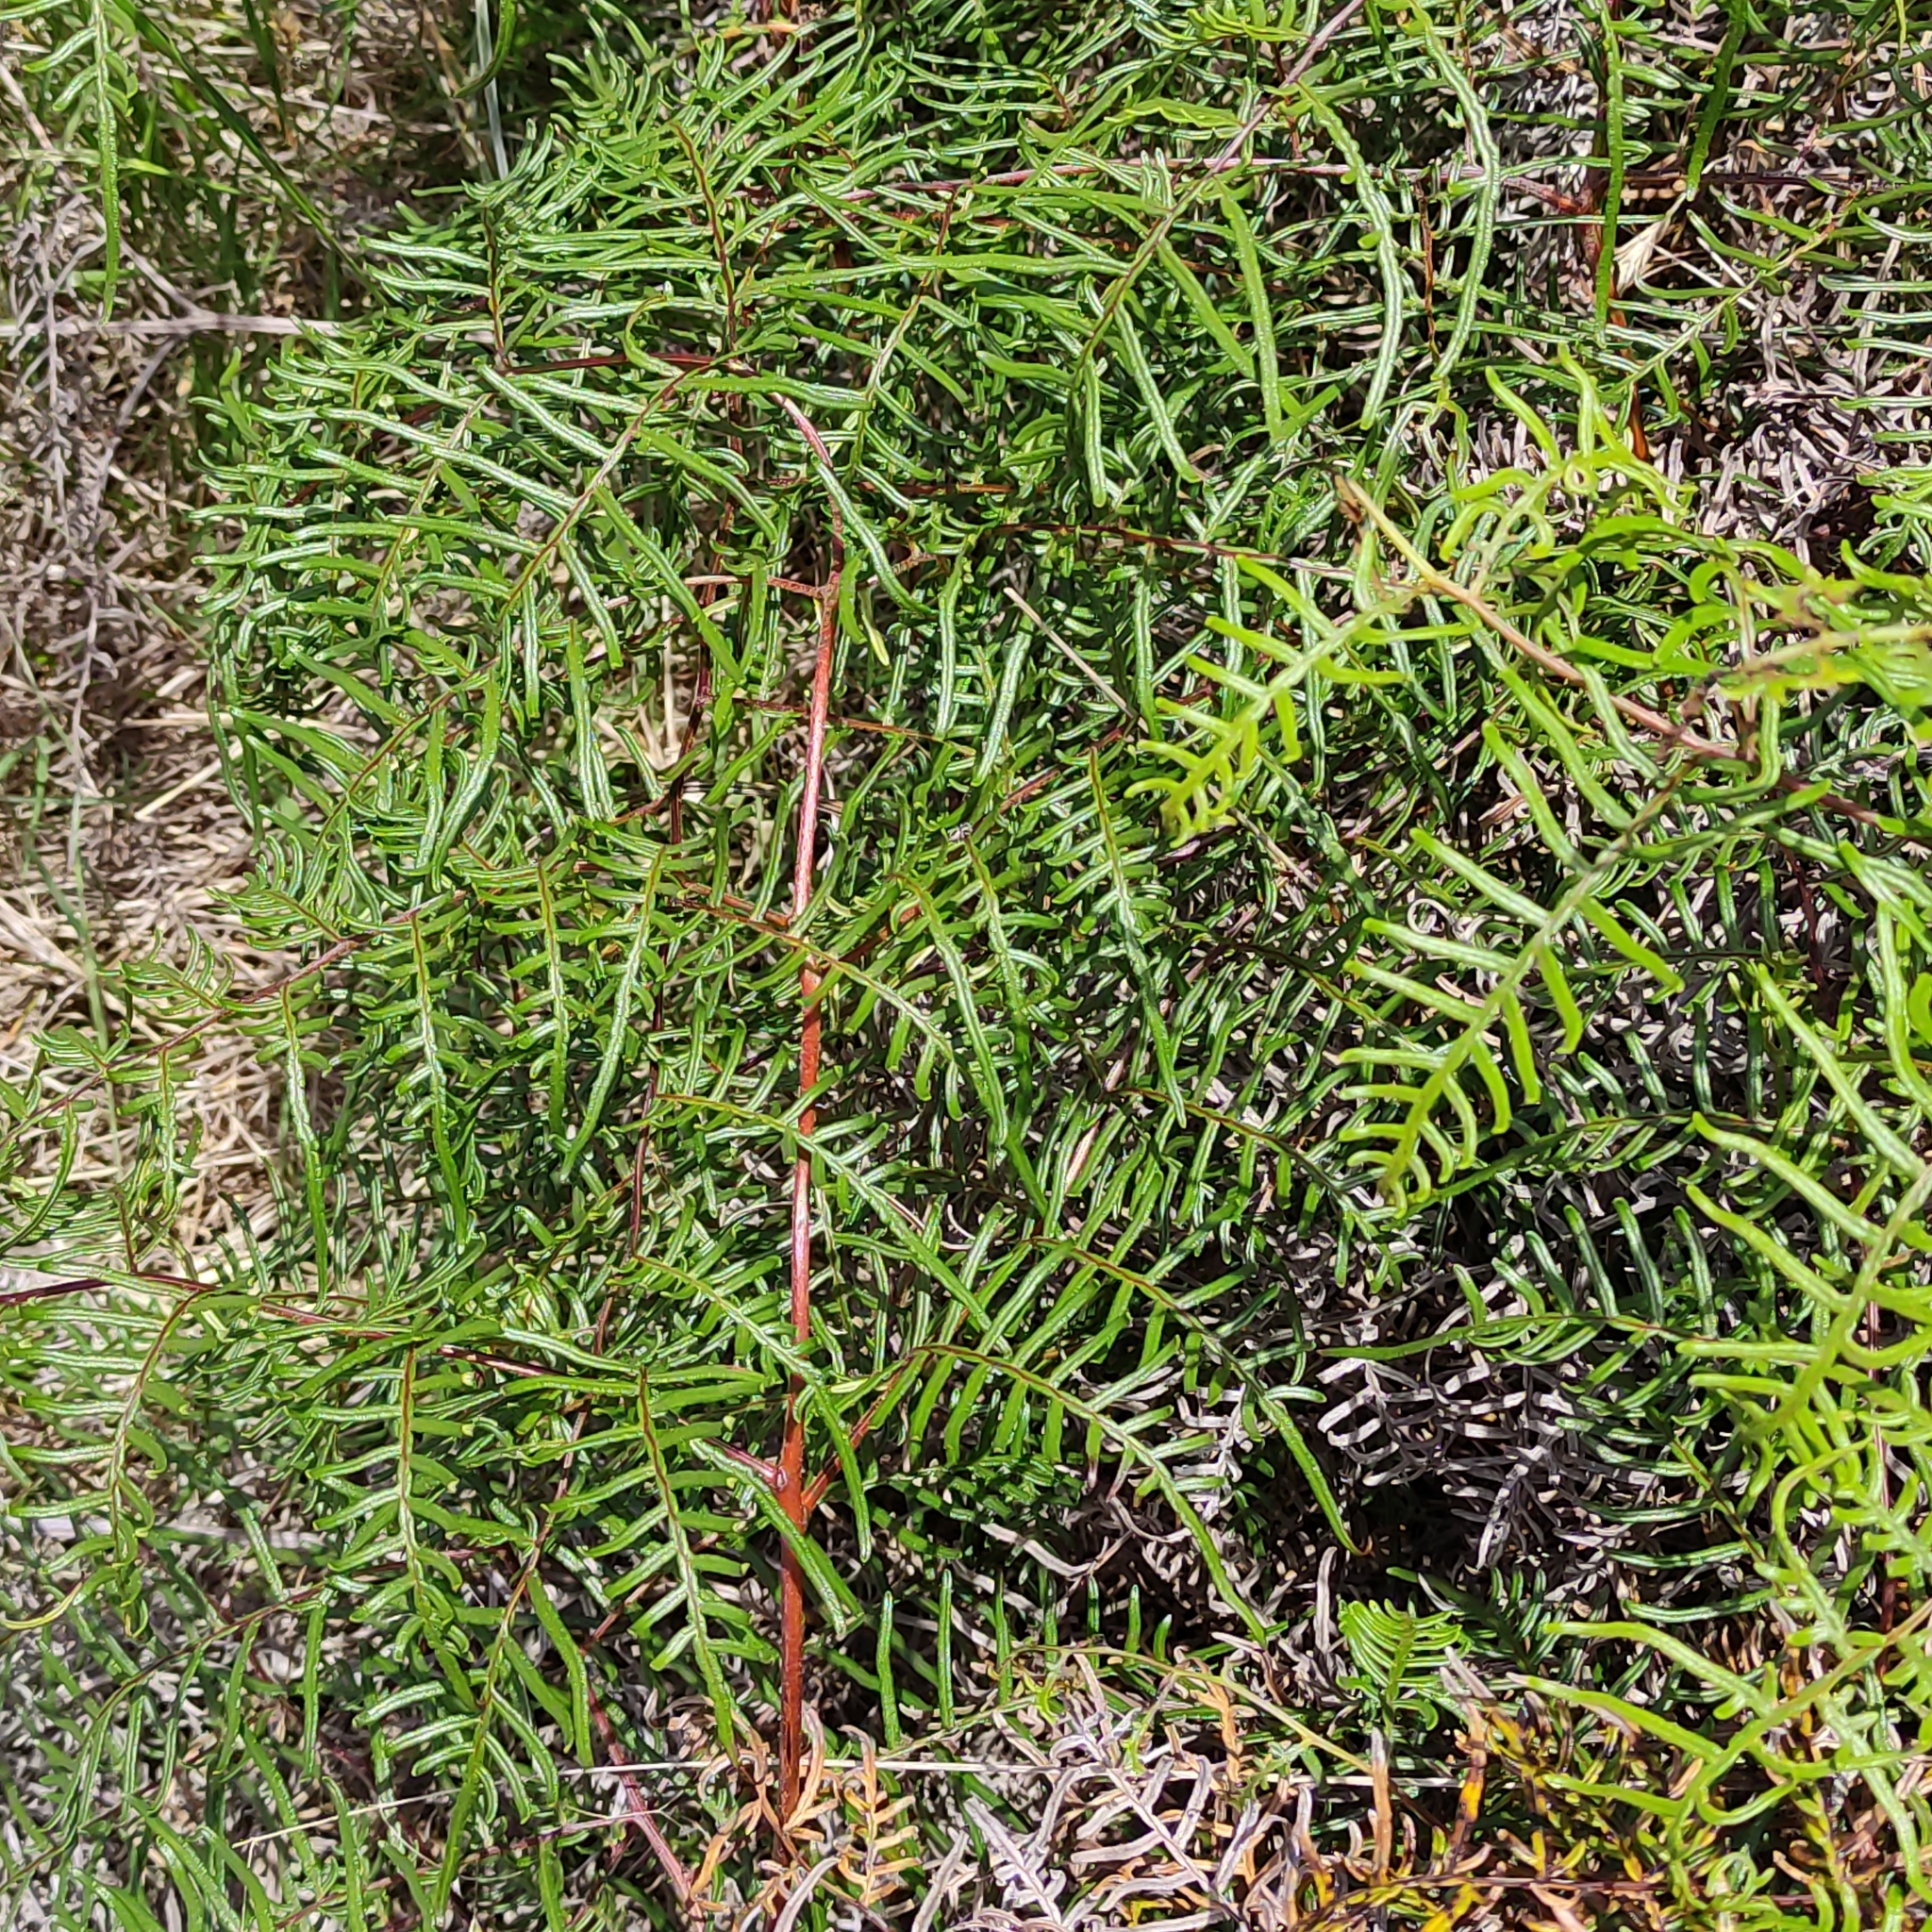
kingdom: Plantae
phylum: Tracheophyta
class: Polypodiopsida
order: Polypodiales
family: Dennstaedtiaceae
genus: Pteridium
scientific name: Pteridium esculentum
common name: Bracken fern
